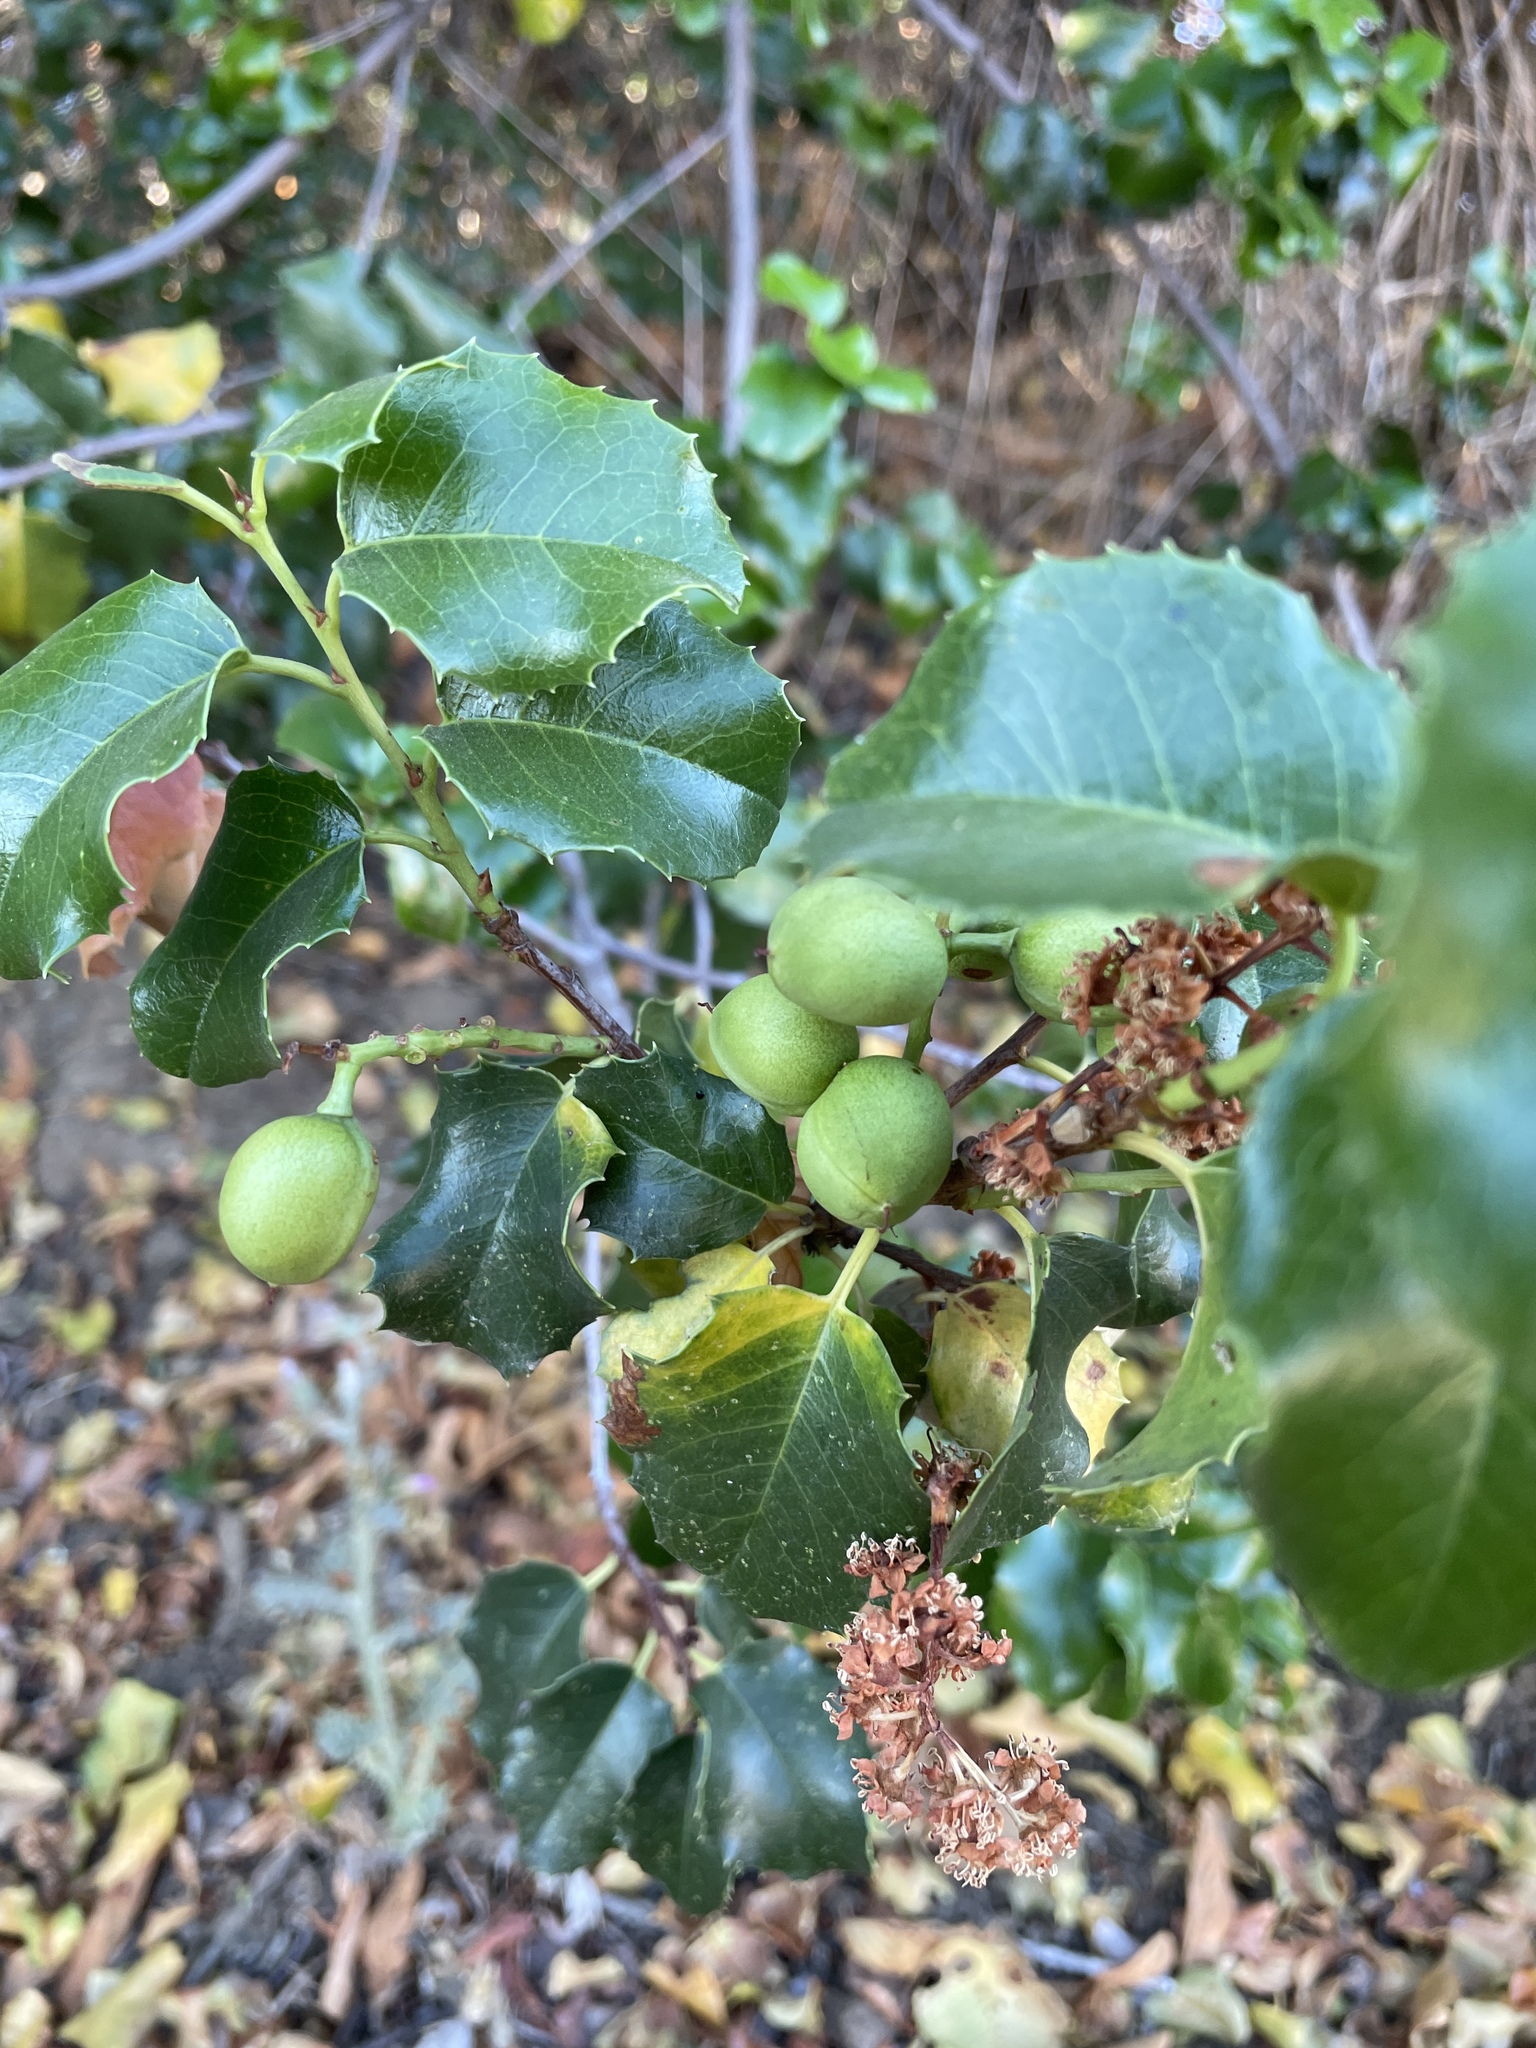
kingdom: Plantae
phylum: Tracheophyta
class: Magnoliopsida
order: Rosales
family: Rosaceae
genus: Prunus
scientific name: Prunus ilicifolia
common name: Hollyleaf cherry
